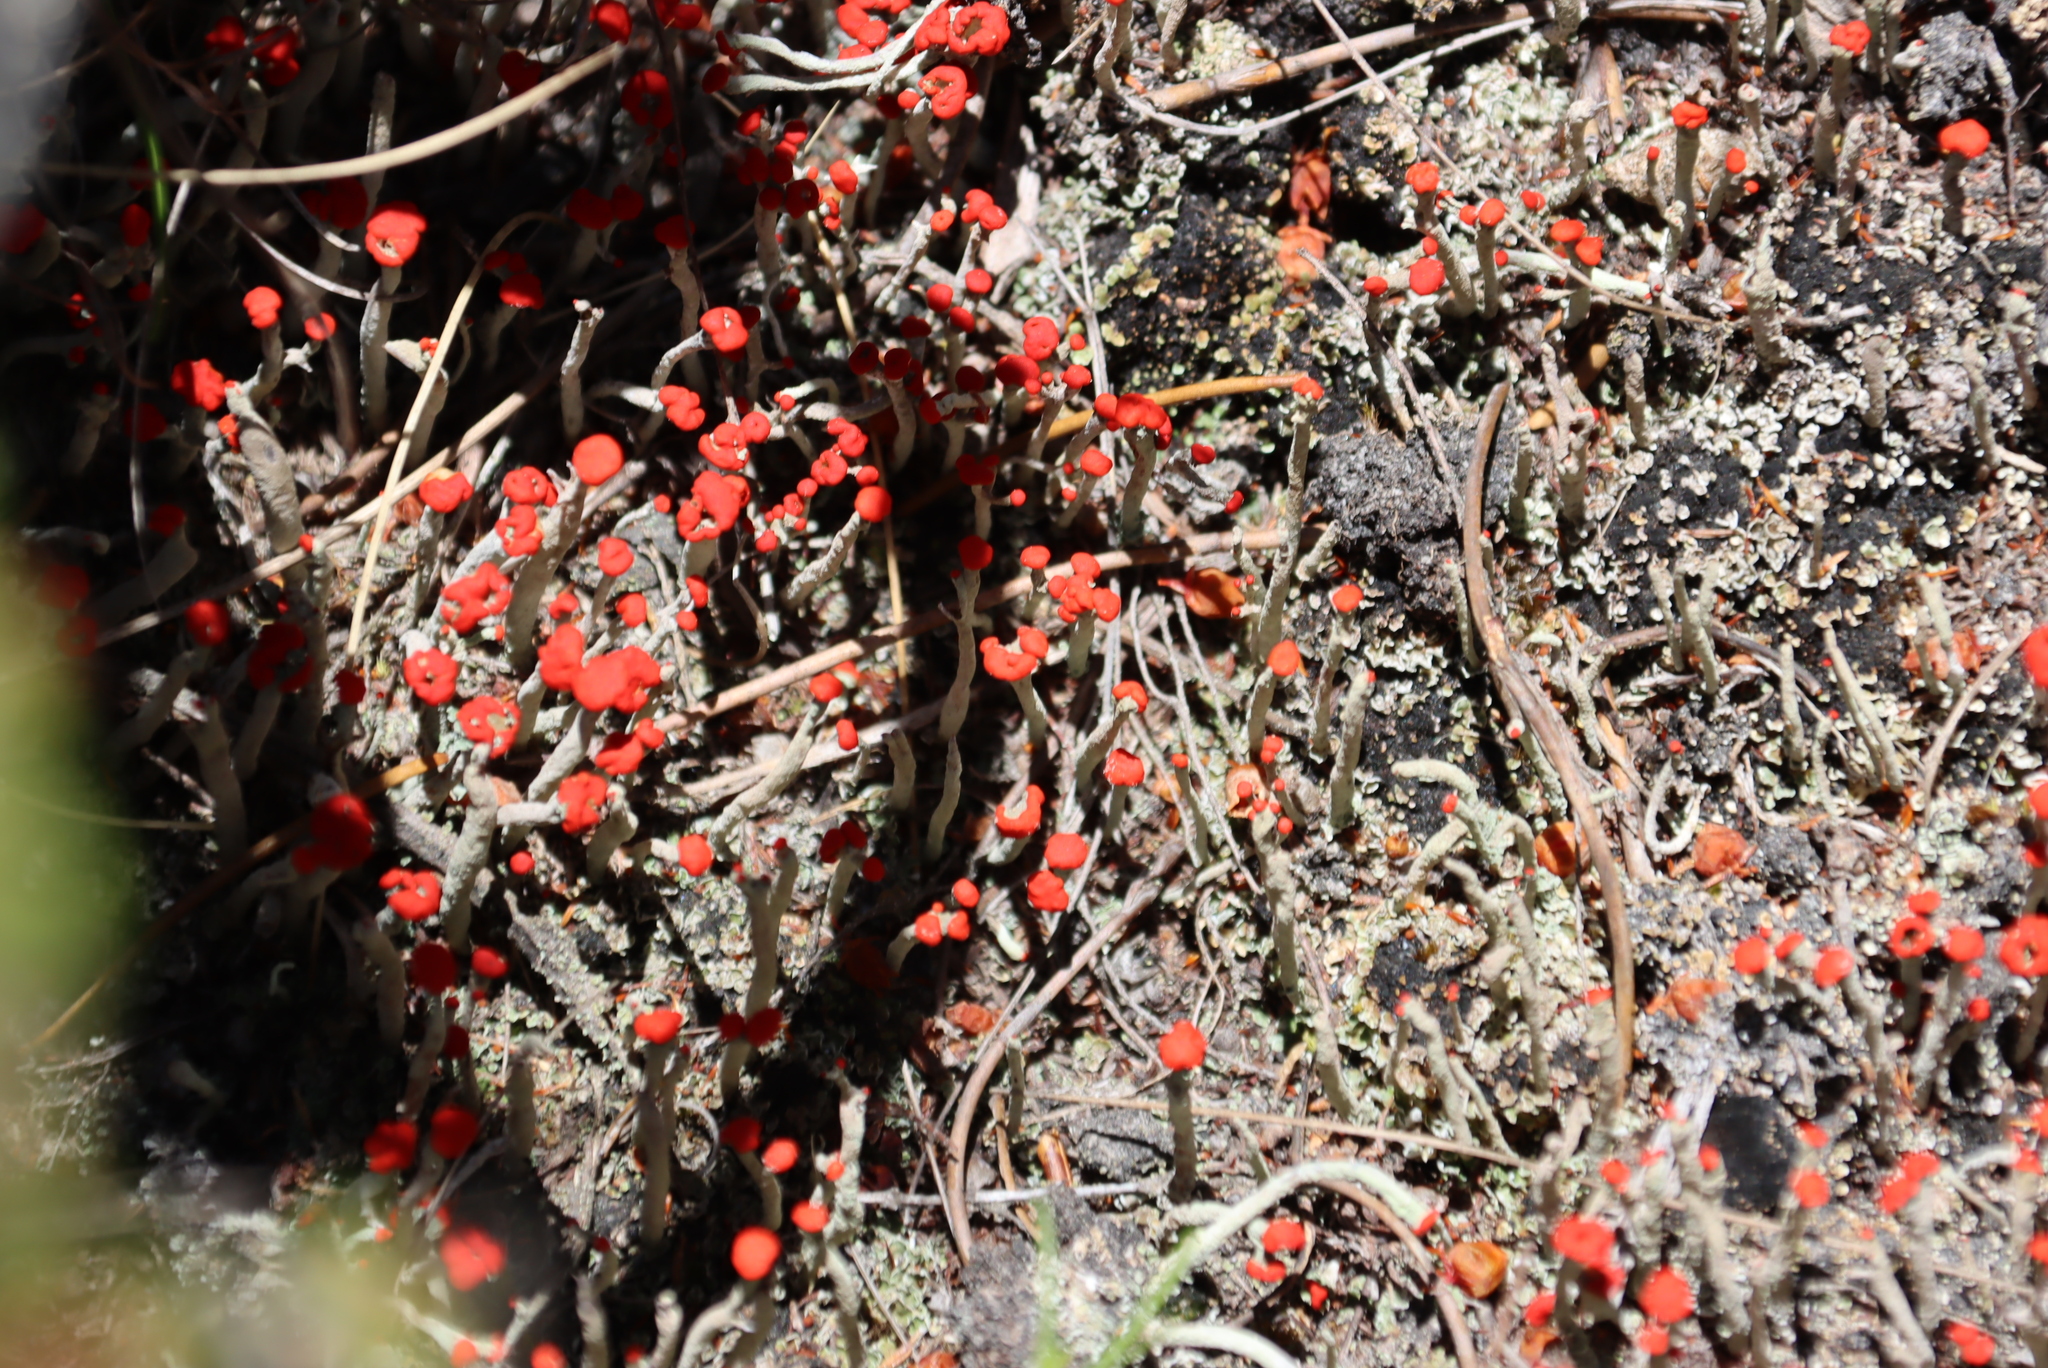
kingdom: Fungi
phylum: Ascomycota
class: Lecanoromycetes
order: Lecanorales
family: Cladoniaceae
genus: Cladonia
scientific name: Cladonia macilenta
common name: Lipstick powderhorn
